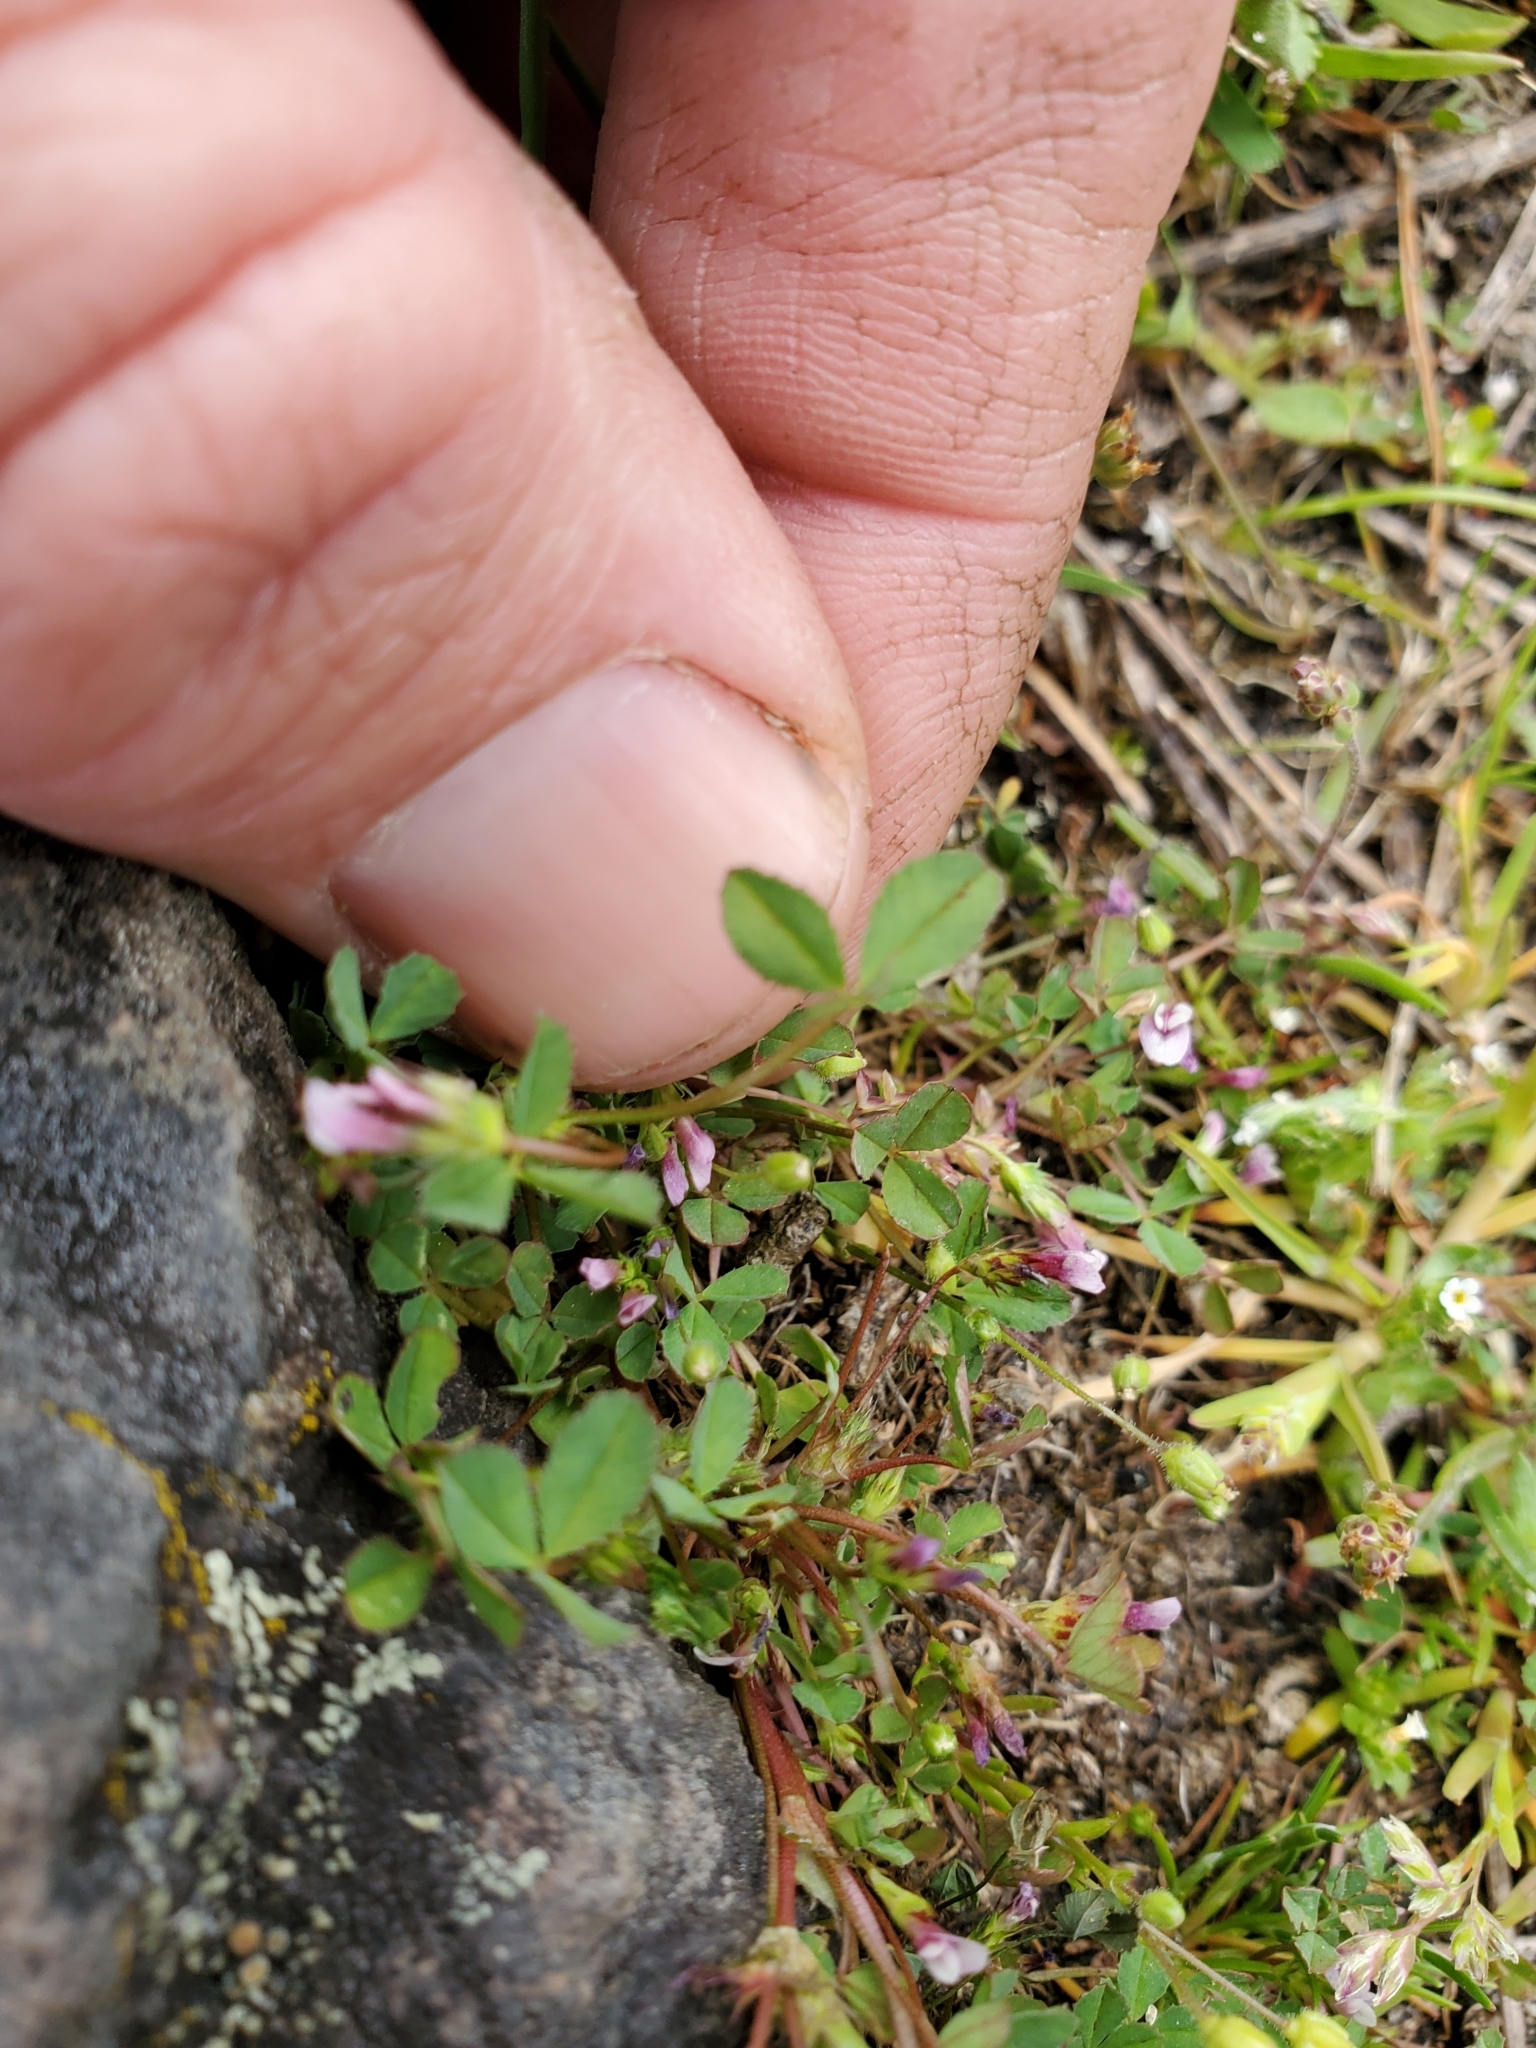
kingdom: Plantae
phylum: Tracheophyta
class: Magnoliopsida
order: Fabales
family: Fabaceae
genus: Trifolium
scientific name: Trifolium variegatum
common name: Whitetip clover
